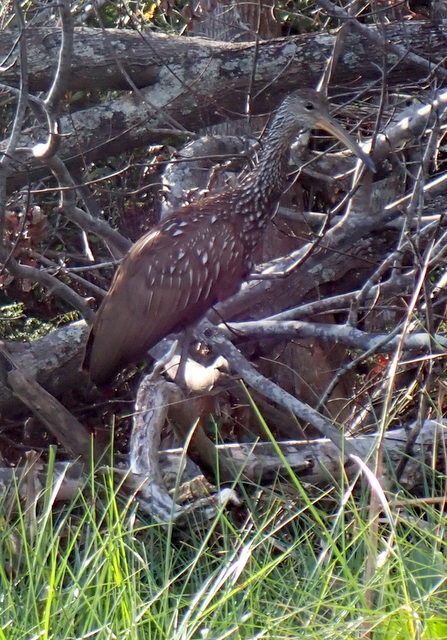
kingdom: Animalia
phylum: Chordata
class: Aves
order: Gruiformes
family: Aramidae
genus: Aramus
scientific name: Aramus guarauna
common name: Limpkin
